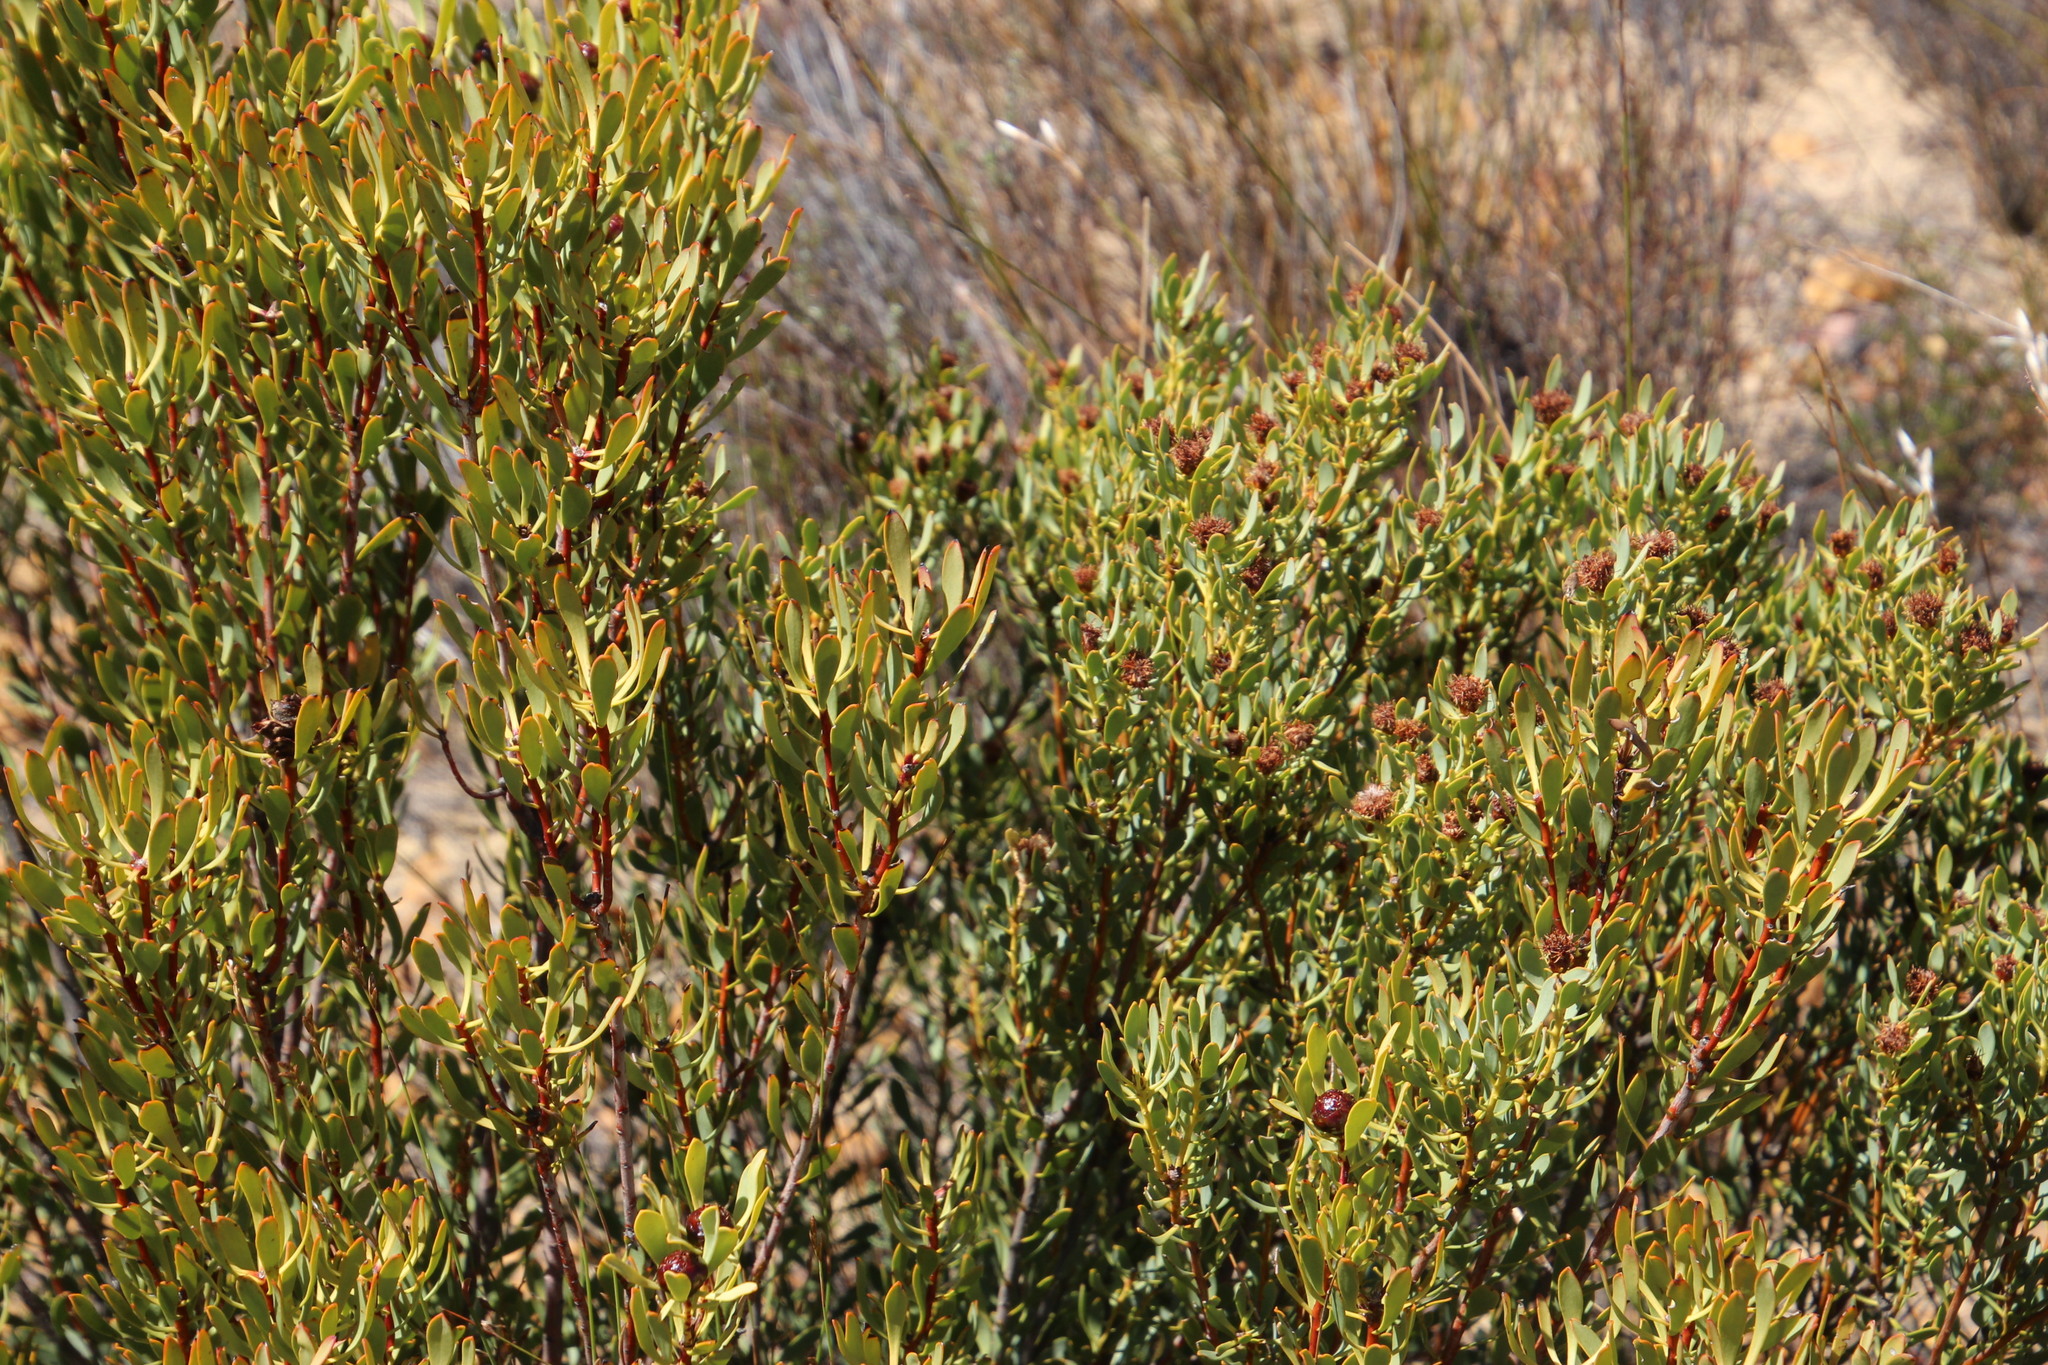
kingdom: Plantae
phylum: Tracheophyta
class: Magnoliopsida
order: Proteales
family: Proteaceae
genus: Leucadendron
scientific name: Leucadendron glaberrimum
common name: Common oily conebush
